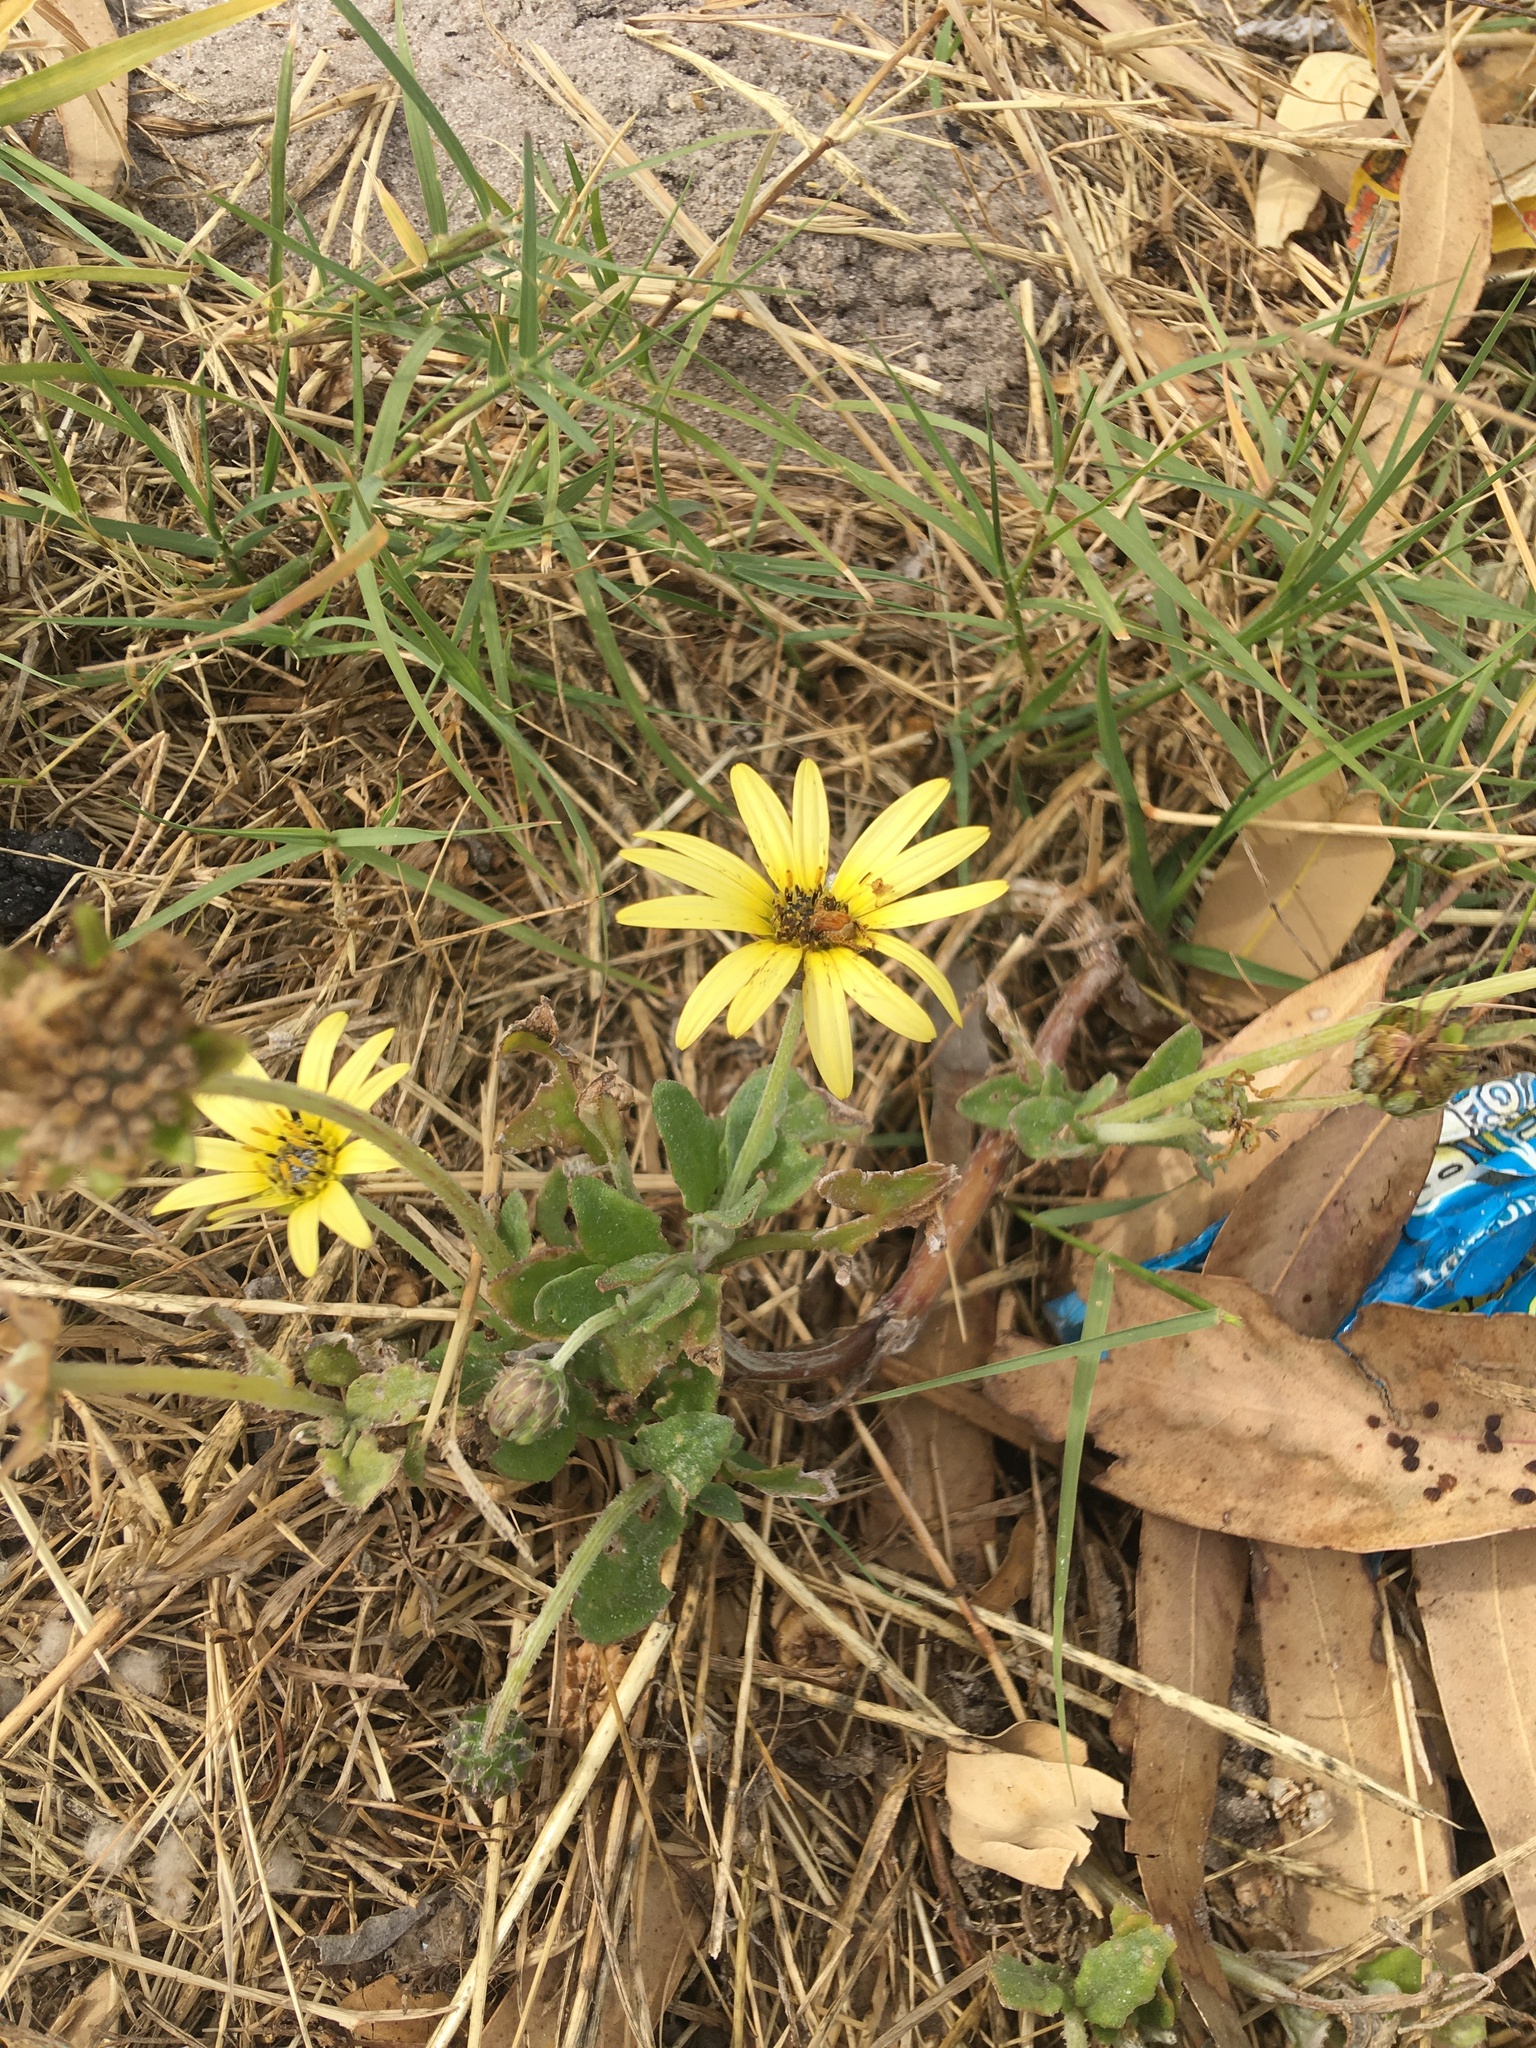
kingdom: Plantae
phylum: Tracheophyta
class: Magnoliopsida
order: Asterales
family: Asteraceae
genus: Arctotheca
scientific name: Arctotheca calendula
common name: Capeweed
